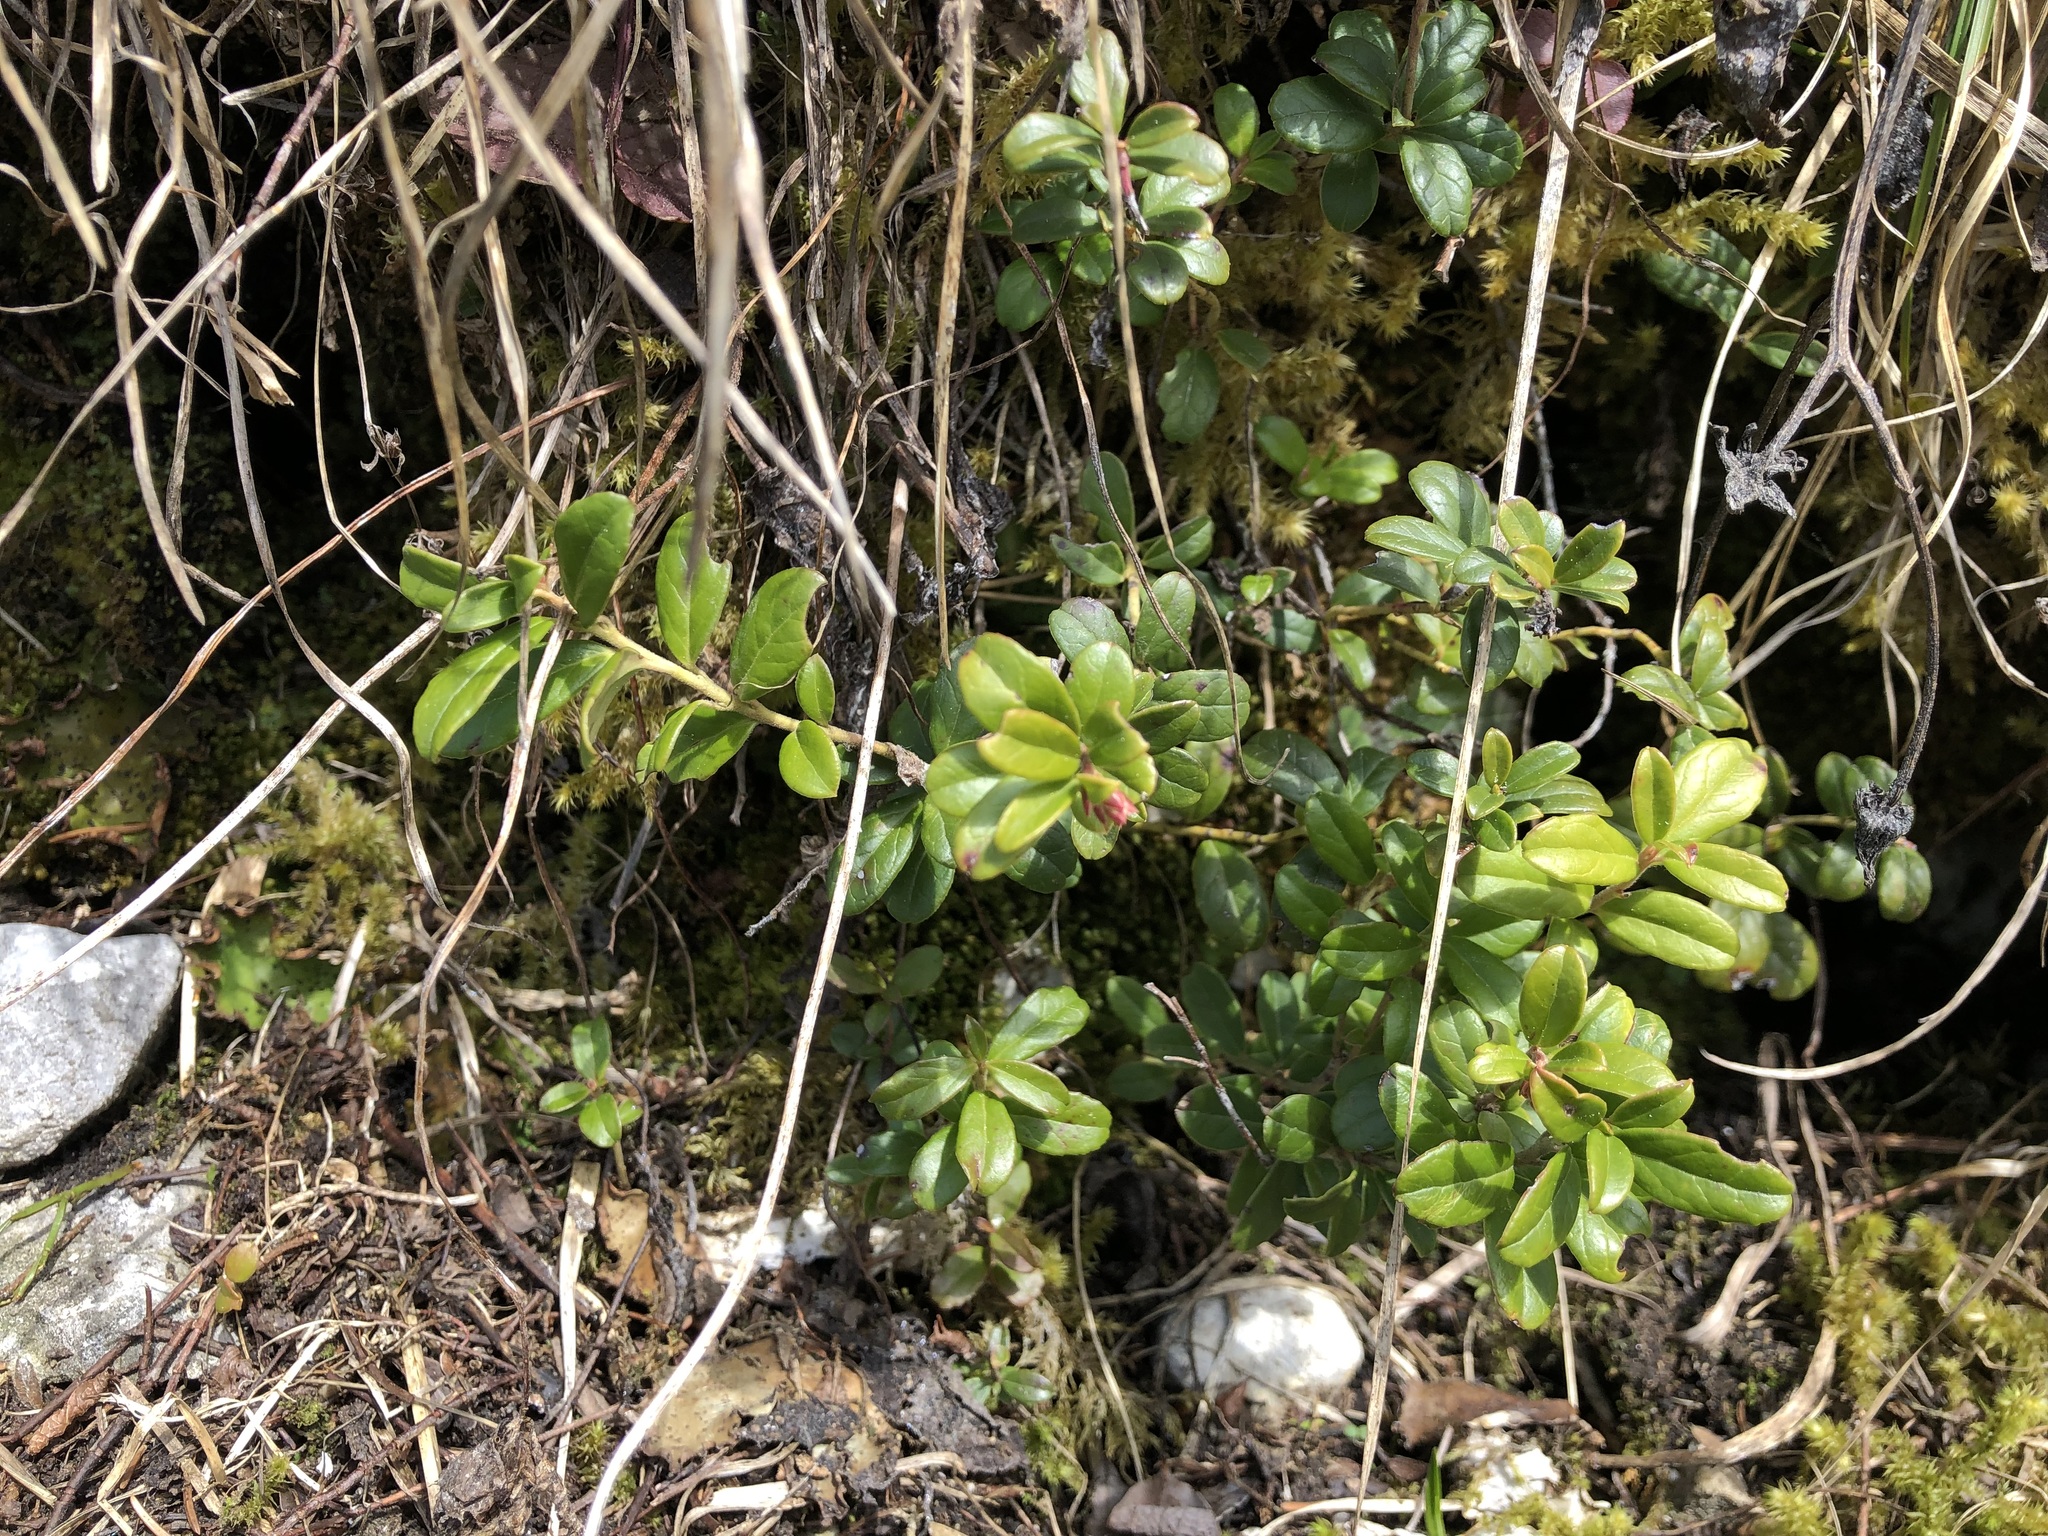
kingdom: Plantae
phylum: Tracheophyta
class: Magnoliopsida
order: Ericales
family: Ericaceae
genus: Vaccinium
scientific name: Vaccinium vitis-idaea
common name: Cowberry
